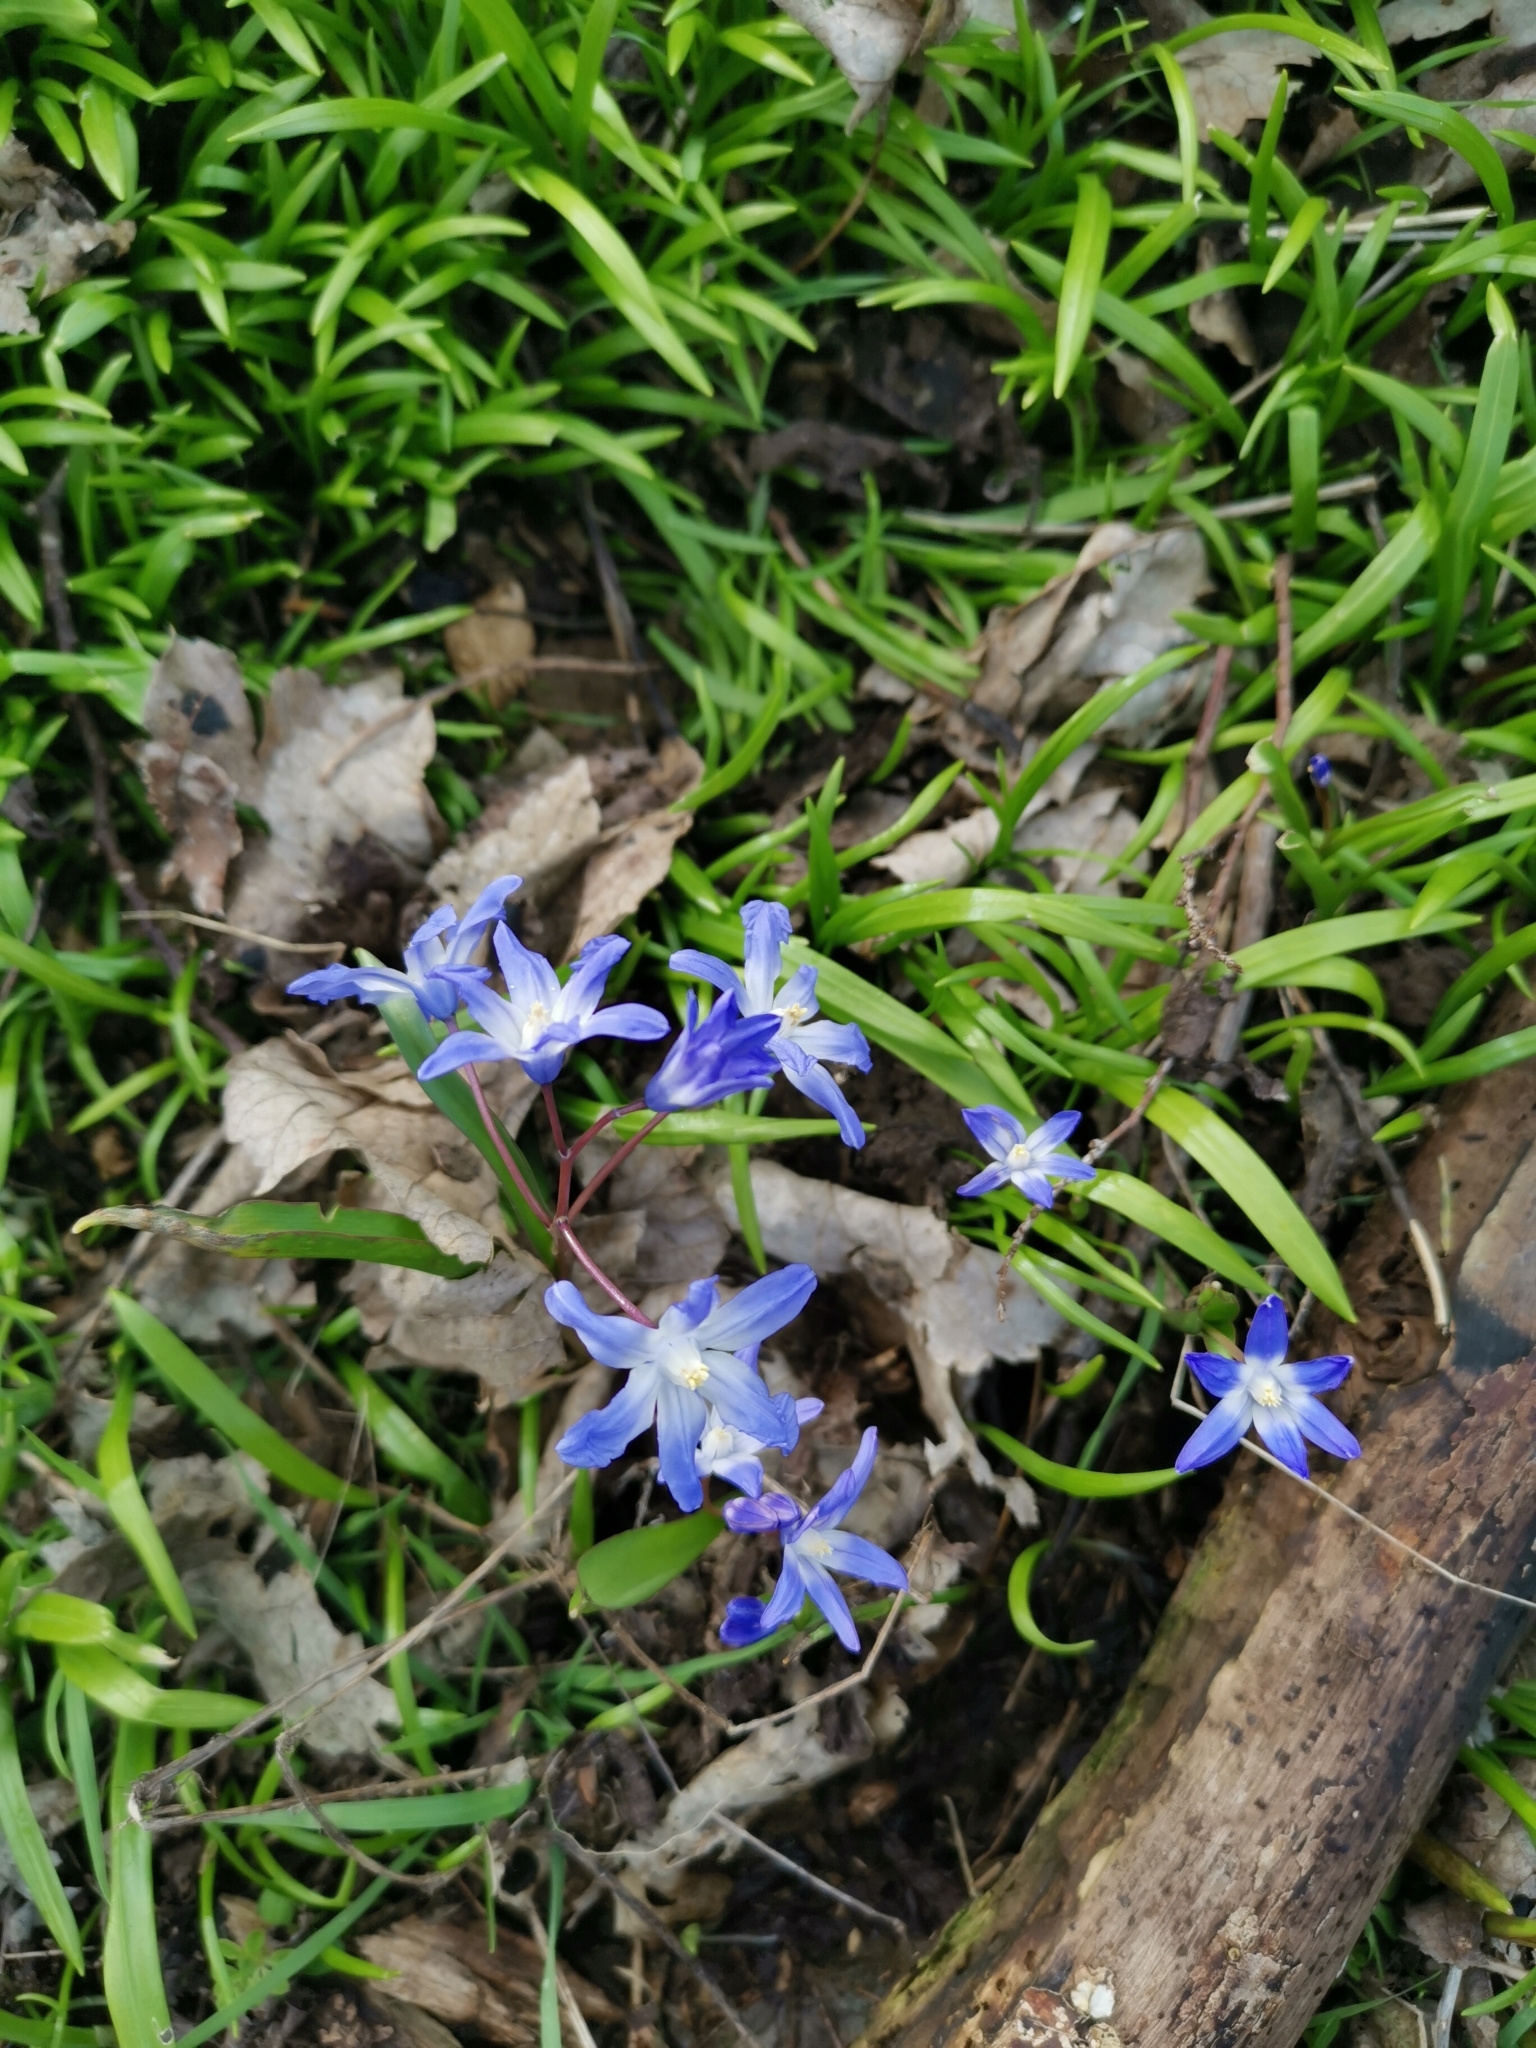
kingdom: Plantae
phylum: Tracheophyta
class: Liliopsida
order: Asparagales
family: Asparagaceae
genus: Scilla
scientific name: Scilla forbesii
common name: Glory-of-the-snow
